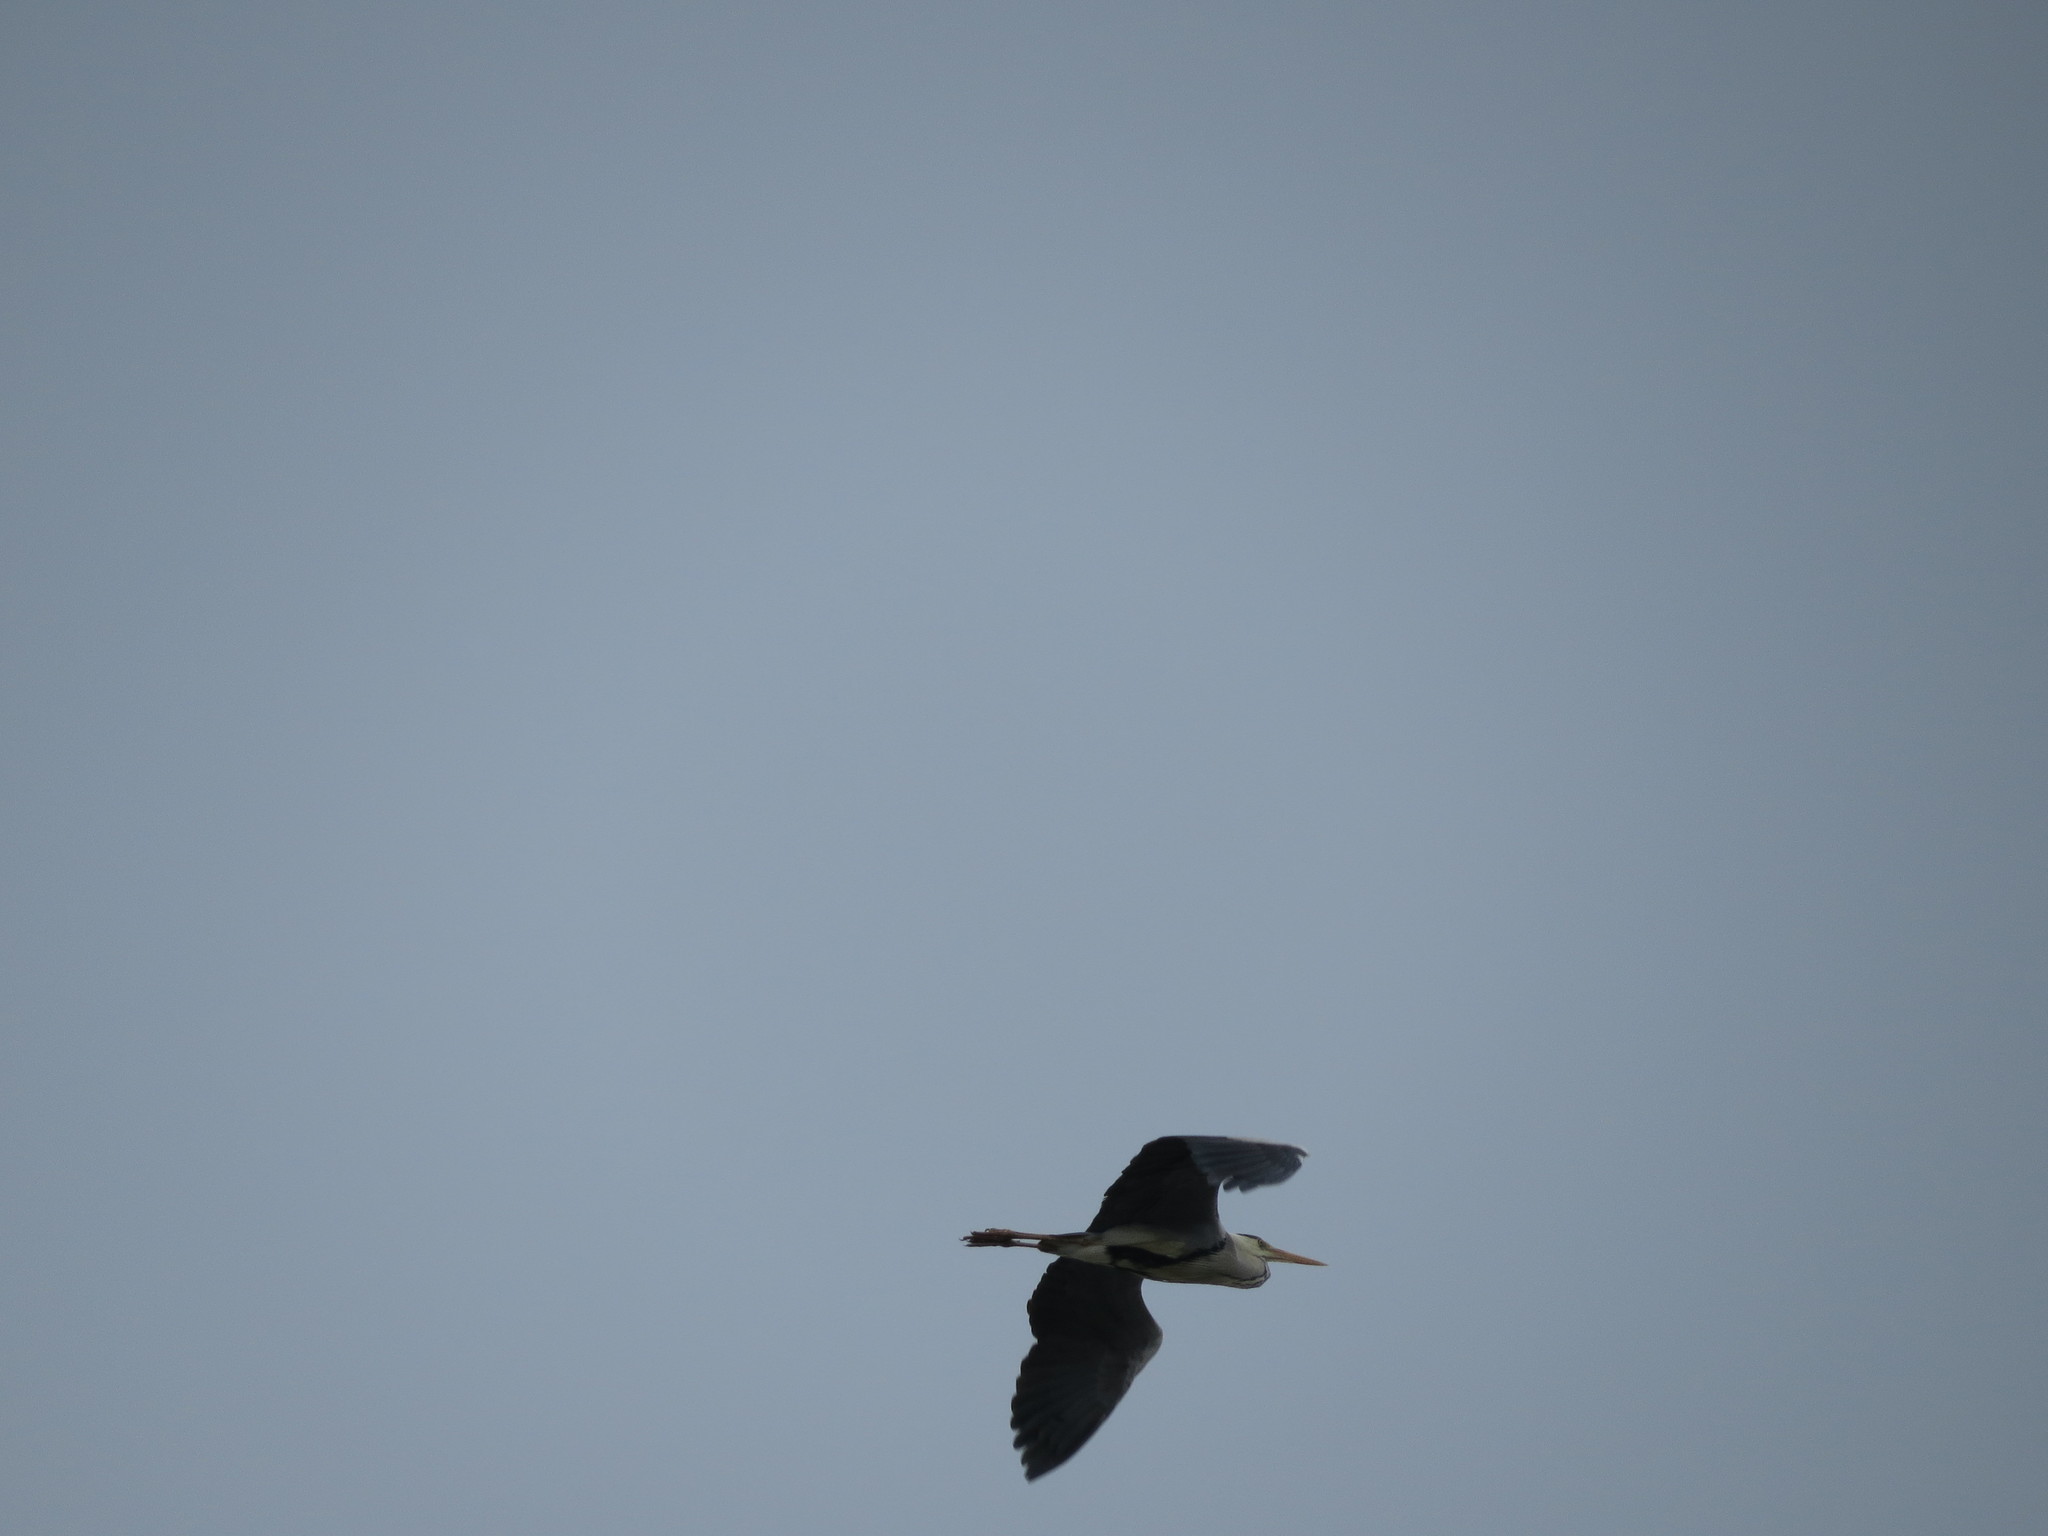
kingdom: Animalia
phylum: Chordata
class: Aves
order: Pelecaniformes
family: Ardeidae
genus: Ardea
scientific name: Ardea cinerea
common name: Grey heron
